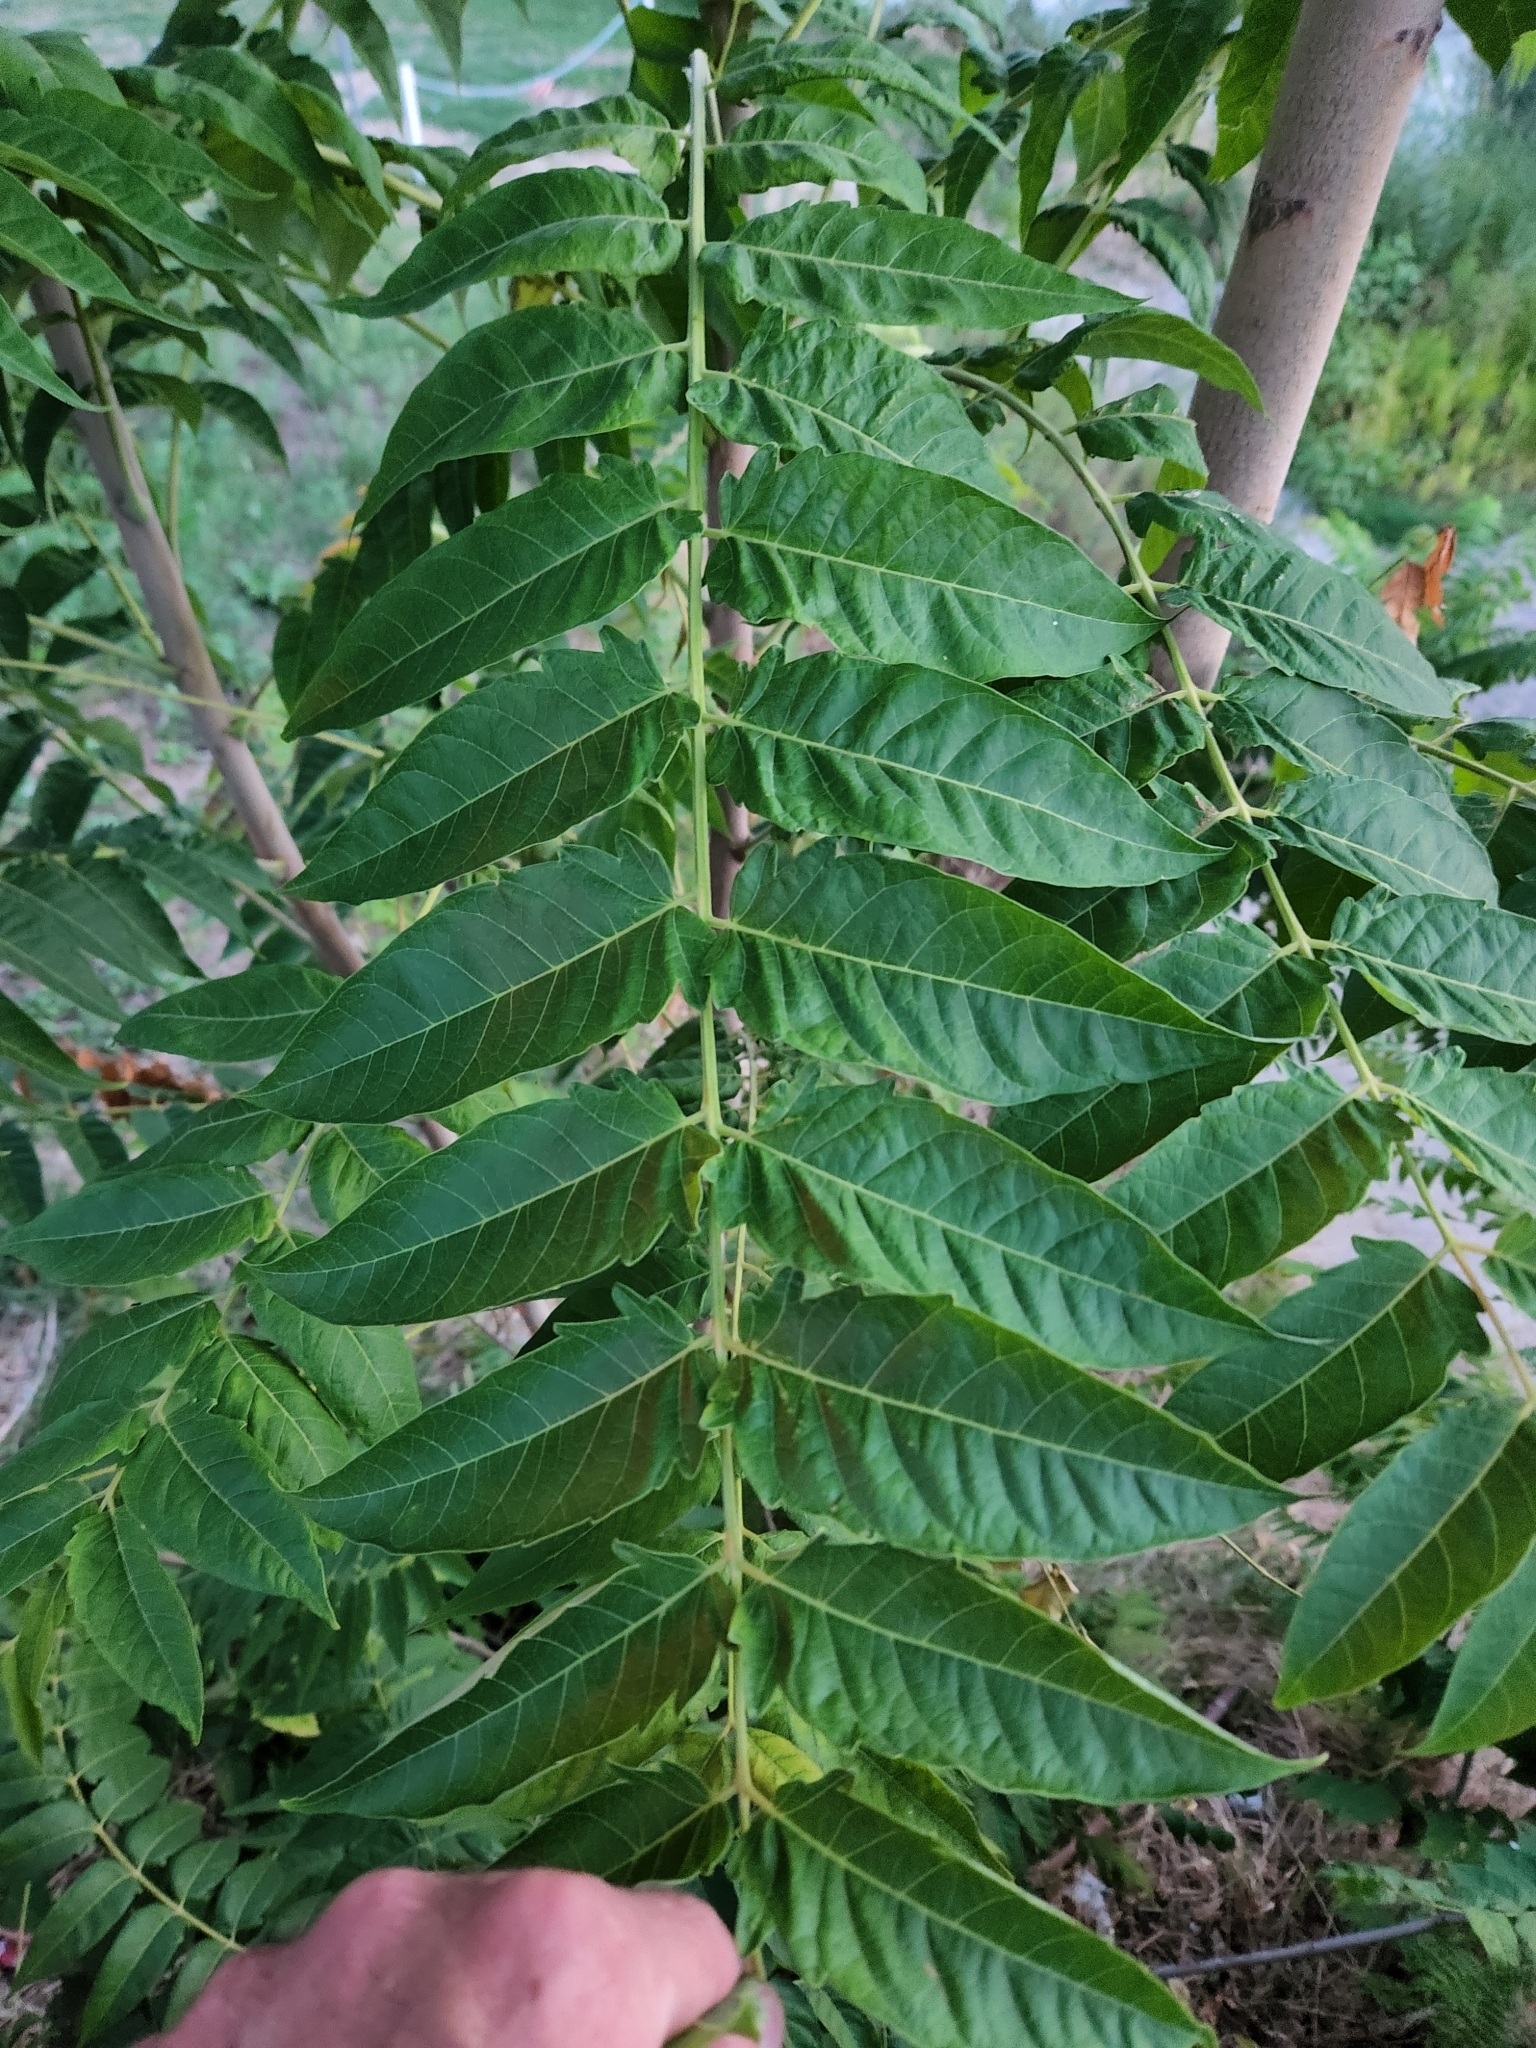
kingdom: Plantae
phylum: Tracheophyta
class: Magnoliopsida
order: Sapindales
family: Simaroubaceae
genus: Ailanthus
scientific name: Ailanthus altissima
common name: Tree-of-heaven
